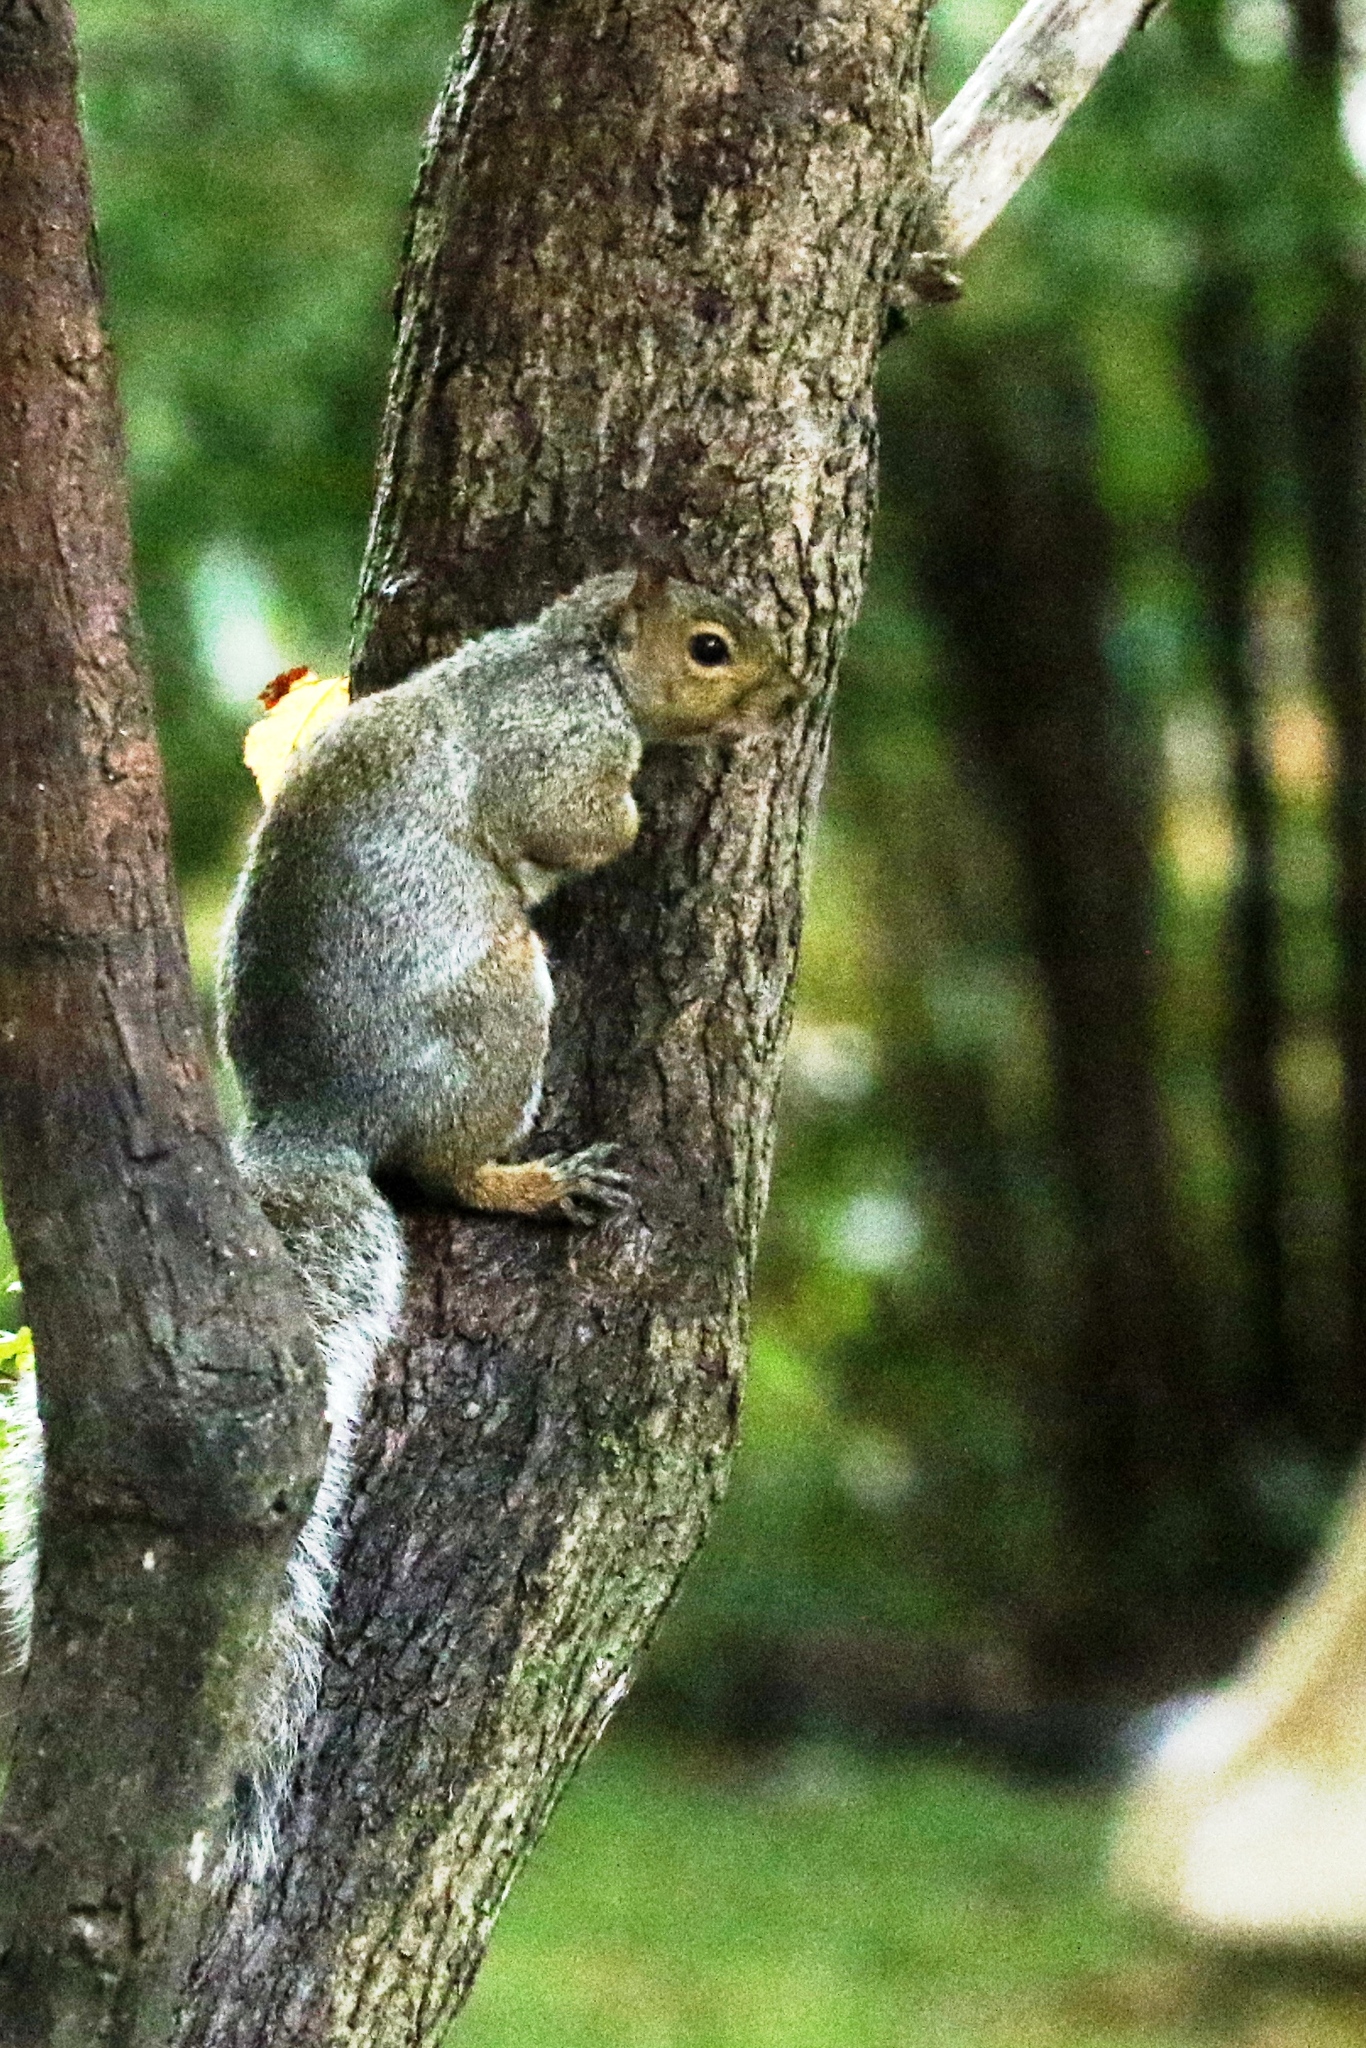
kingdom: Animalia
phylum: Chordata
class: Mammalia
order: Rodentia
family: Sciuridae
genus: Sciurus
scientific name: Sciurus carolinensis
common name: Eastern gray squirrel
